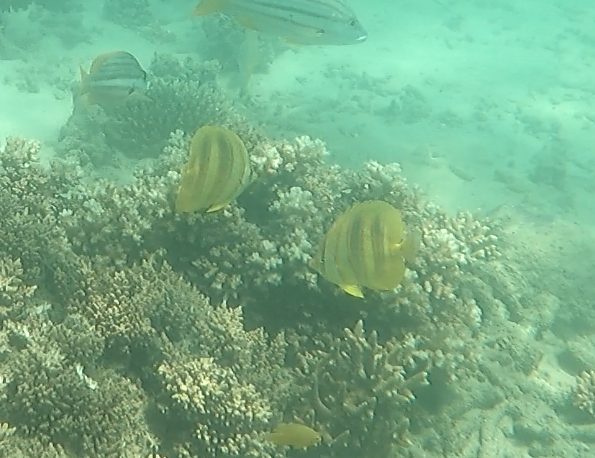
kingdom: Animalia
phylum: Chordata
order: Perciformes
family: Chaetodontidae
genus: Chaetodon
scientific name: Chaetodon rainfordi
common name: Rainford's butterflyfish
